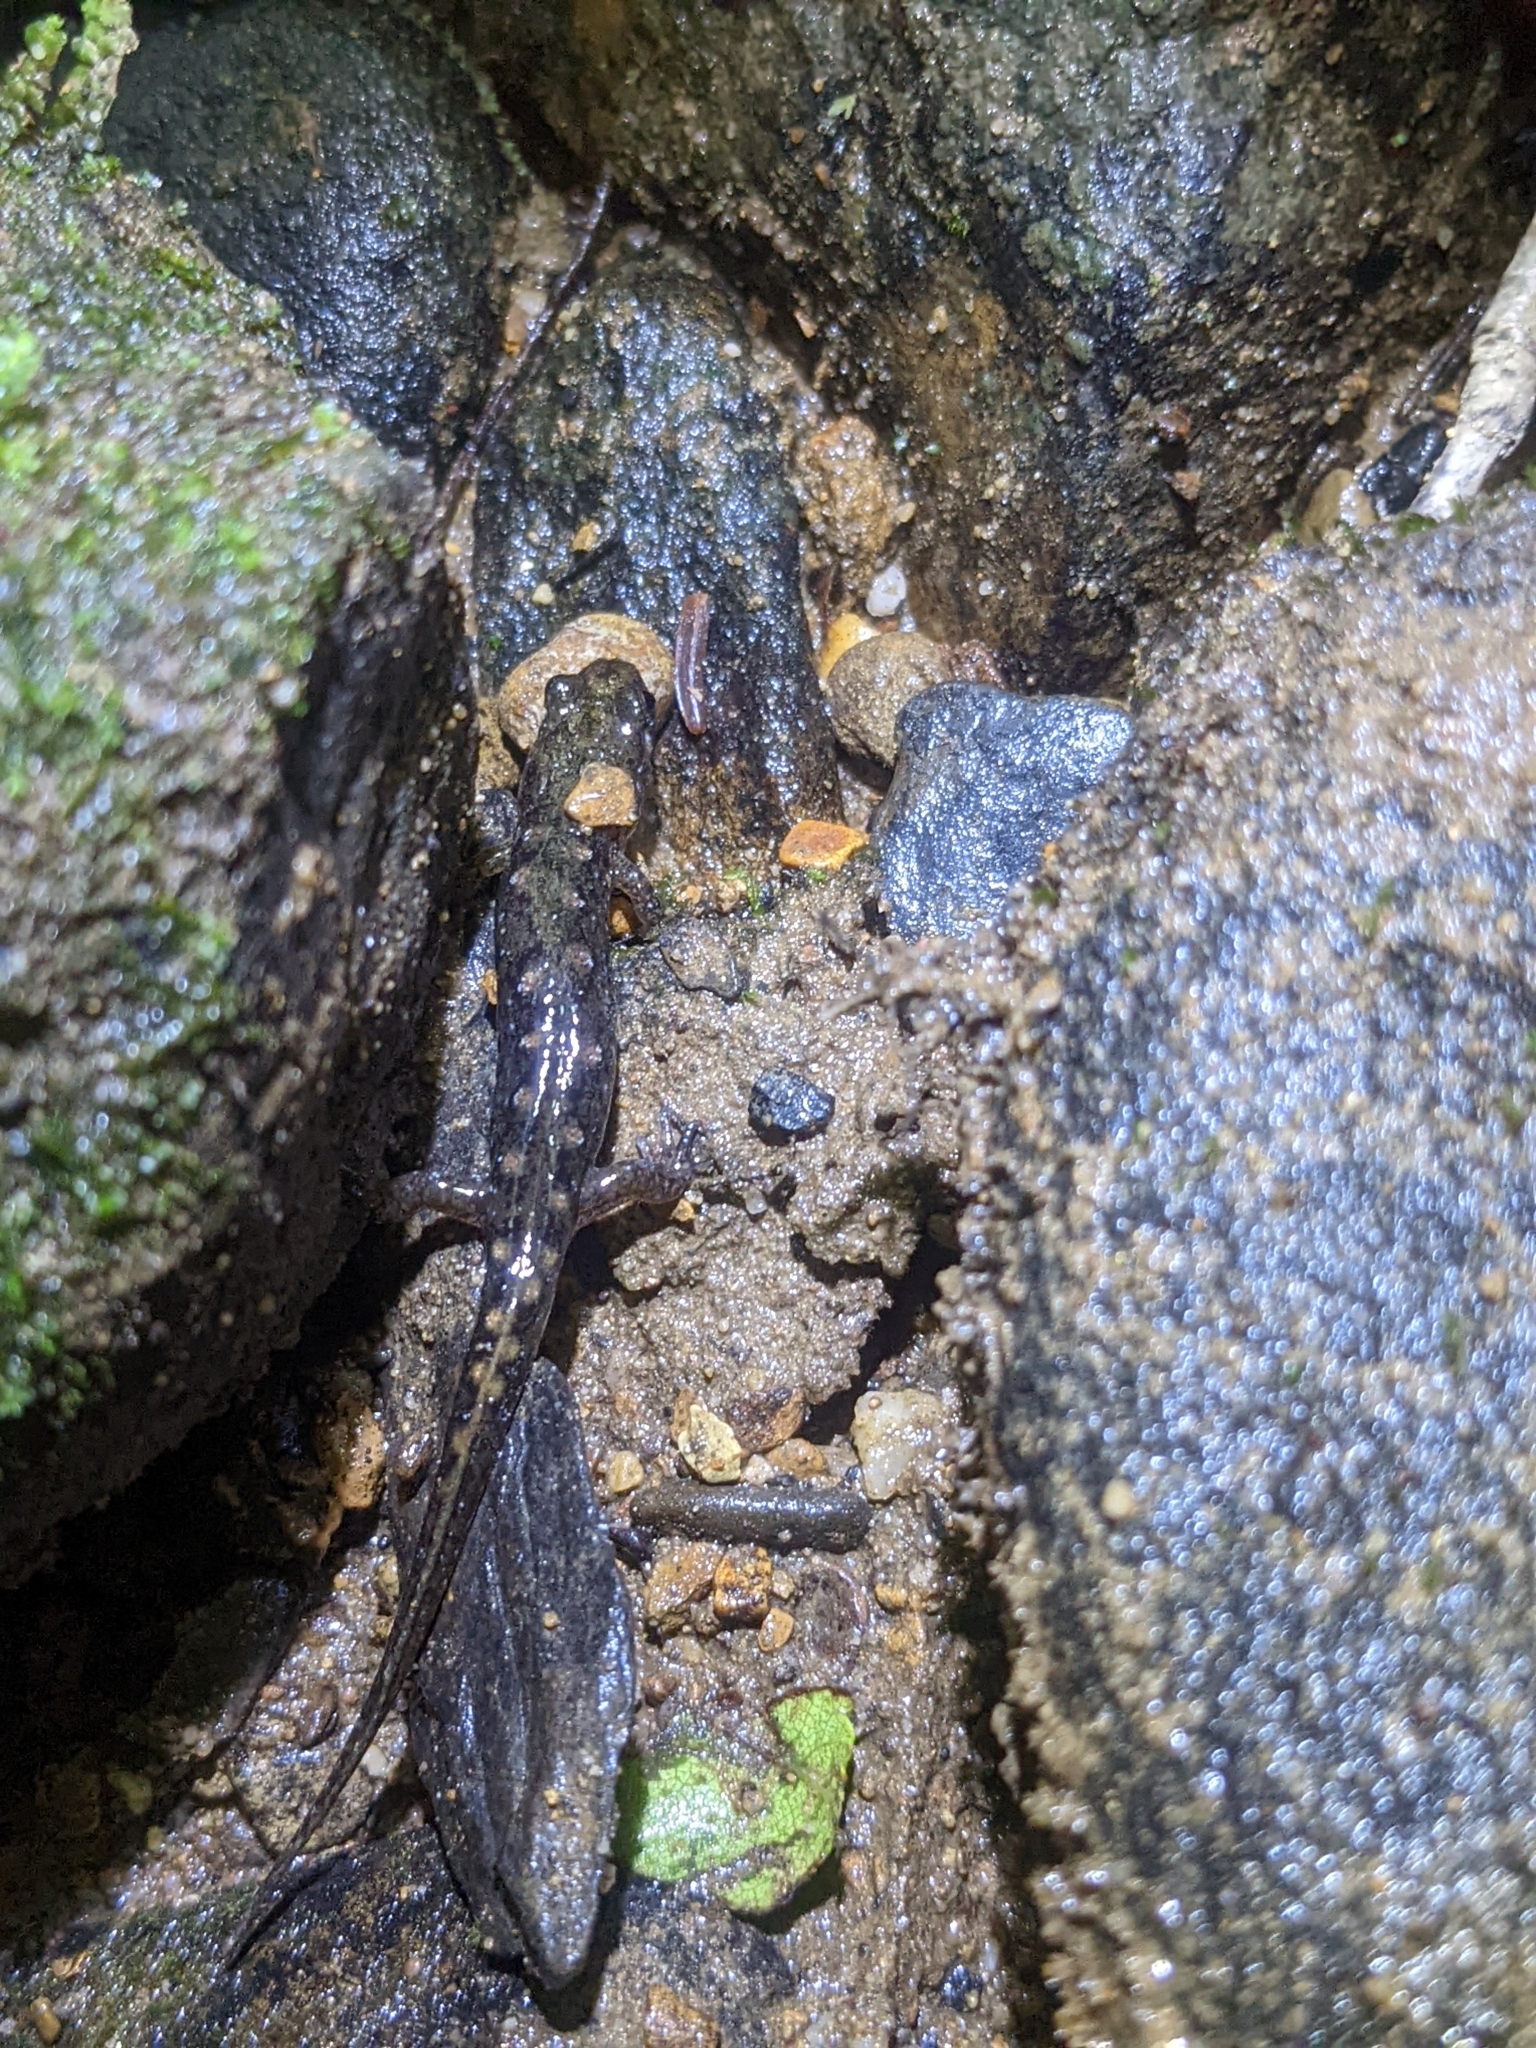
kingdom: Animalia
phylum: Chordata
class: Amphibia
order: Caudata
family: Plethodontidae
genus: Desmognathus
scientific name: Desmognathus monticola
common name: Seal salamander
